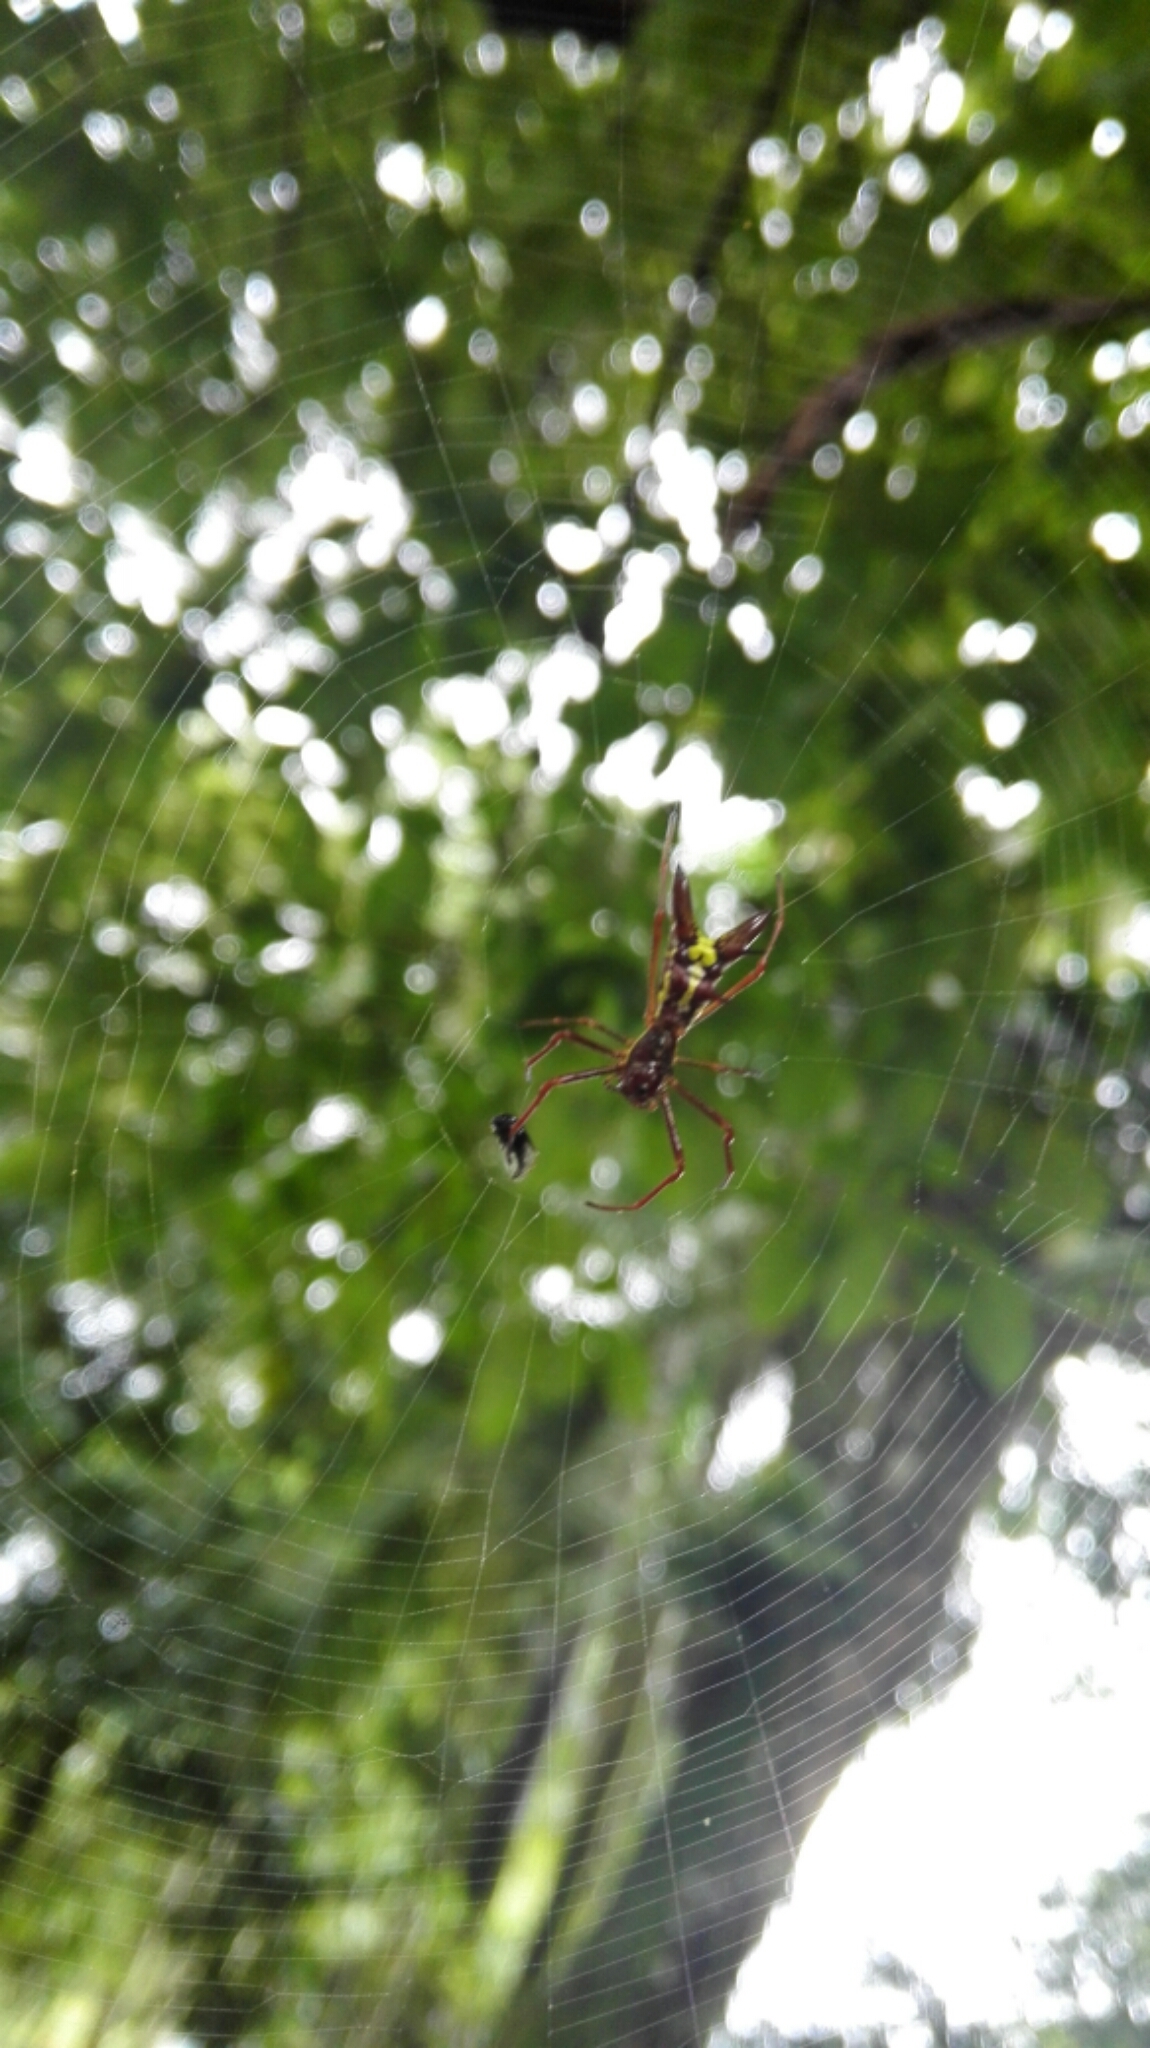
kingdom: Animalia
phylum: Arthropoda
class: Arachnida
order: Araneae
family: Araneidae
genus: Micrathena
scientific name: Micrathena coca
